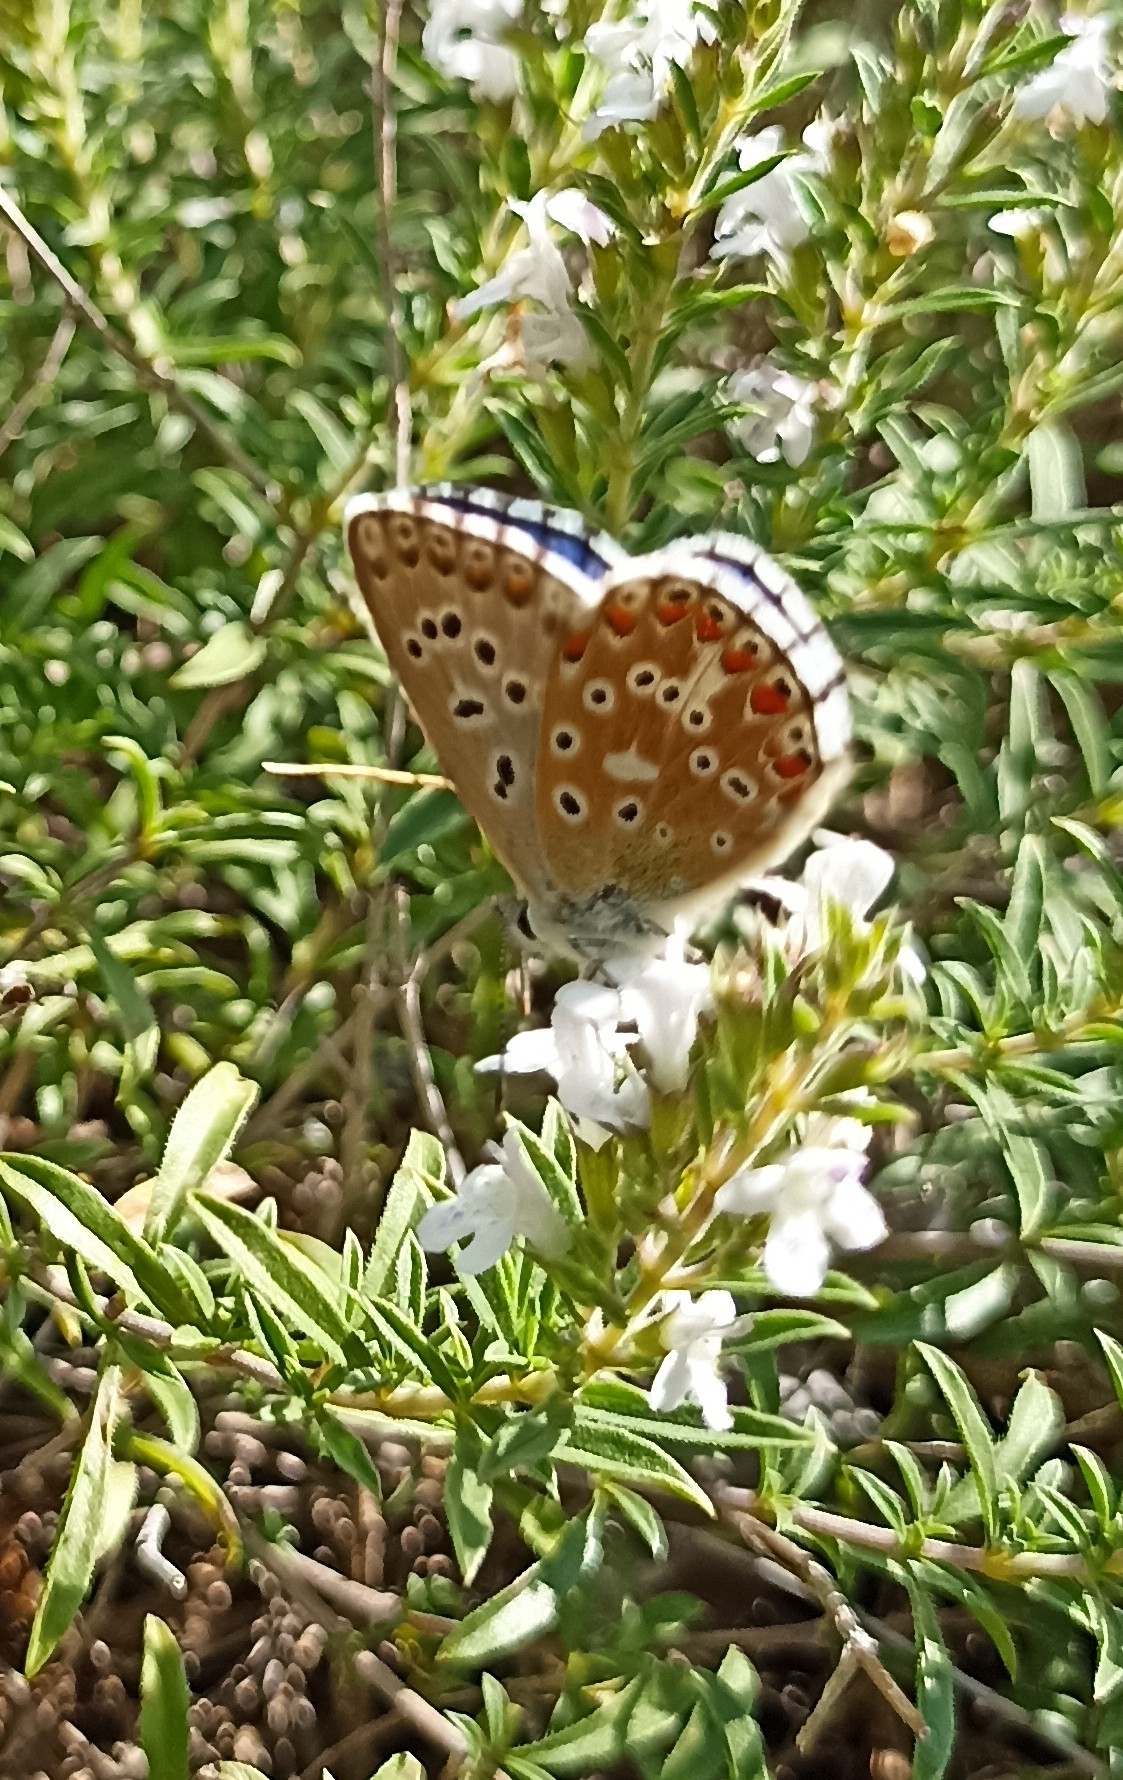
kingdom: Animalia
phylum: Arthropoda
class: Insecta
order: Lepidoptera
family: Lycaenidae
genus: Lysandra
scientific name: Lysandra bellargus
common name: Adonis blue
